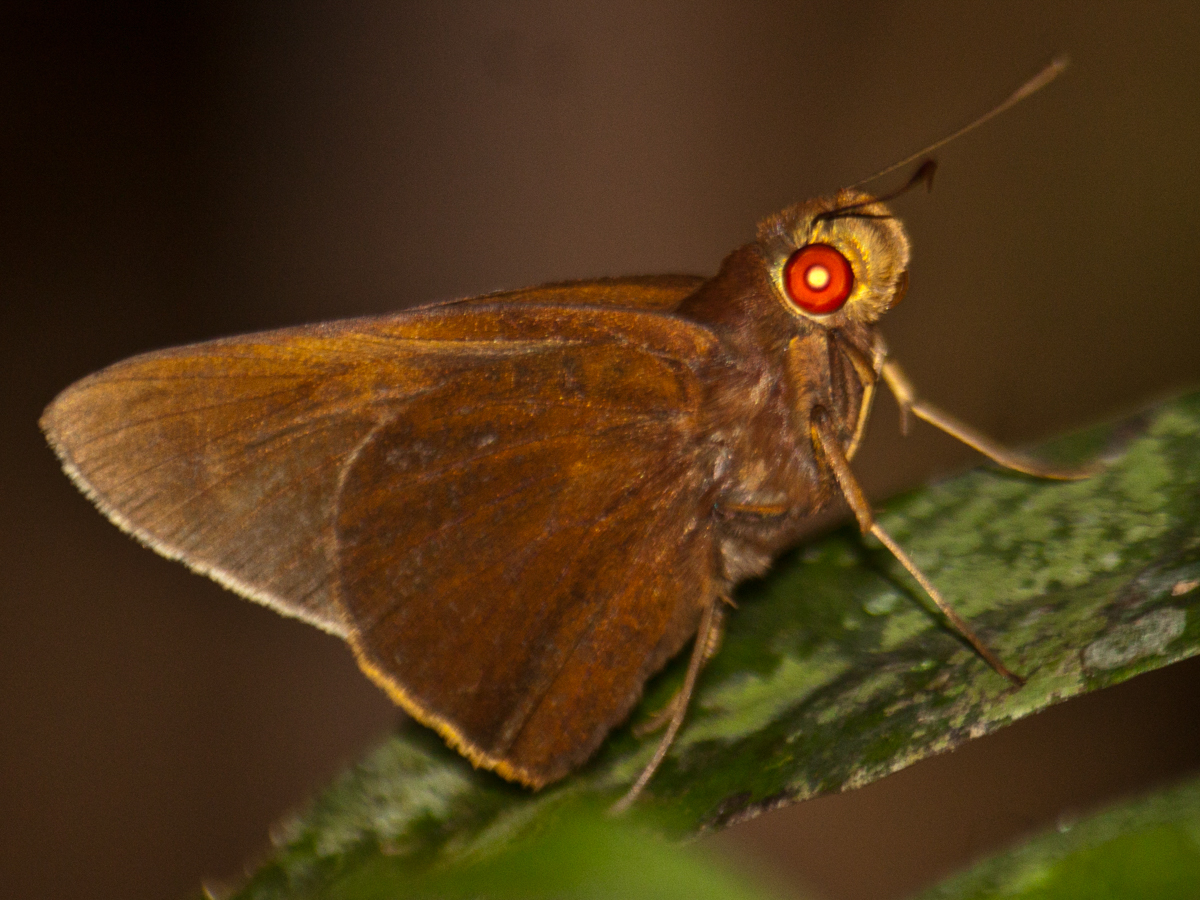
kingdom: Animalia
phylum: Arthropoda
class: Insecta
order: Lepidoptera
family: Hesperiidae
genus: Matapa
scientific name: Matapa druna
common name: Grey-brand redeye
